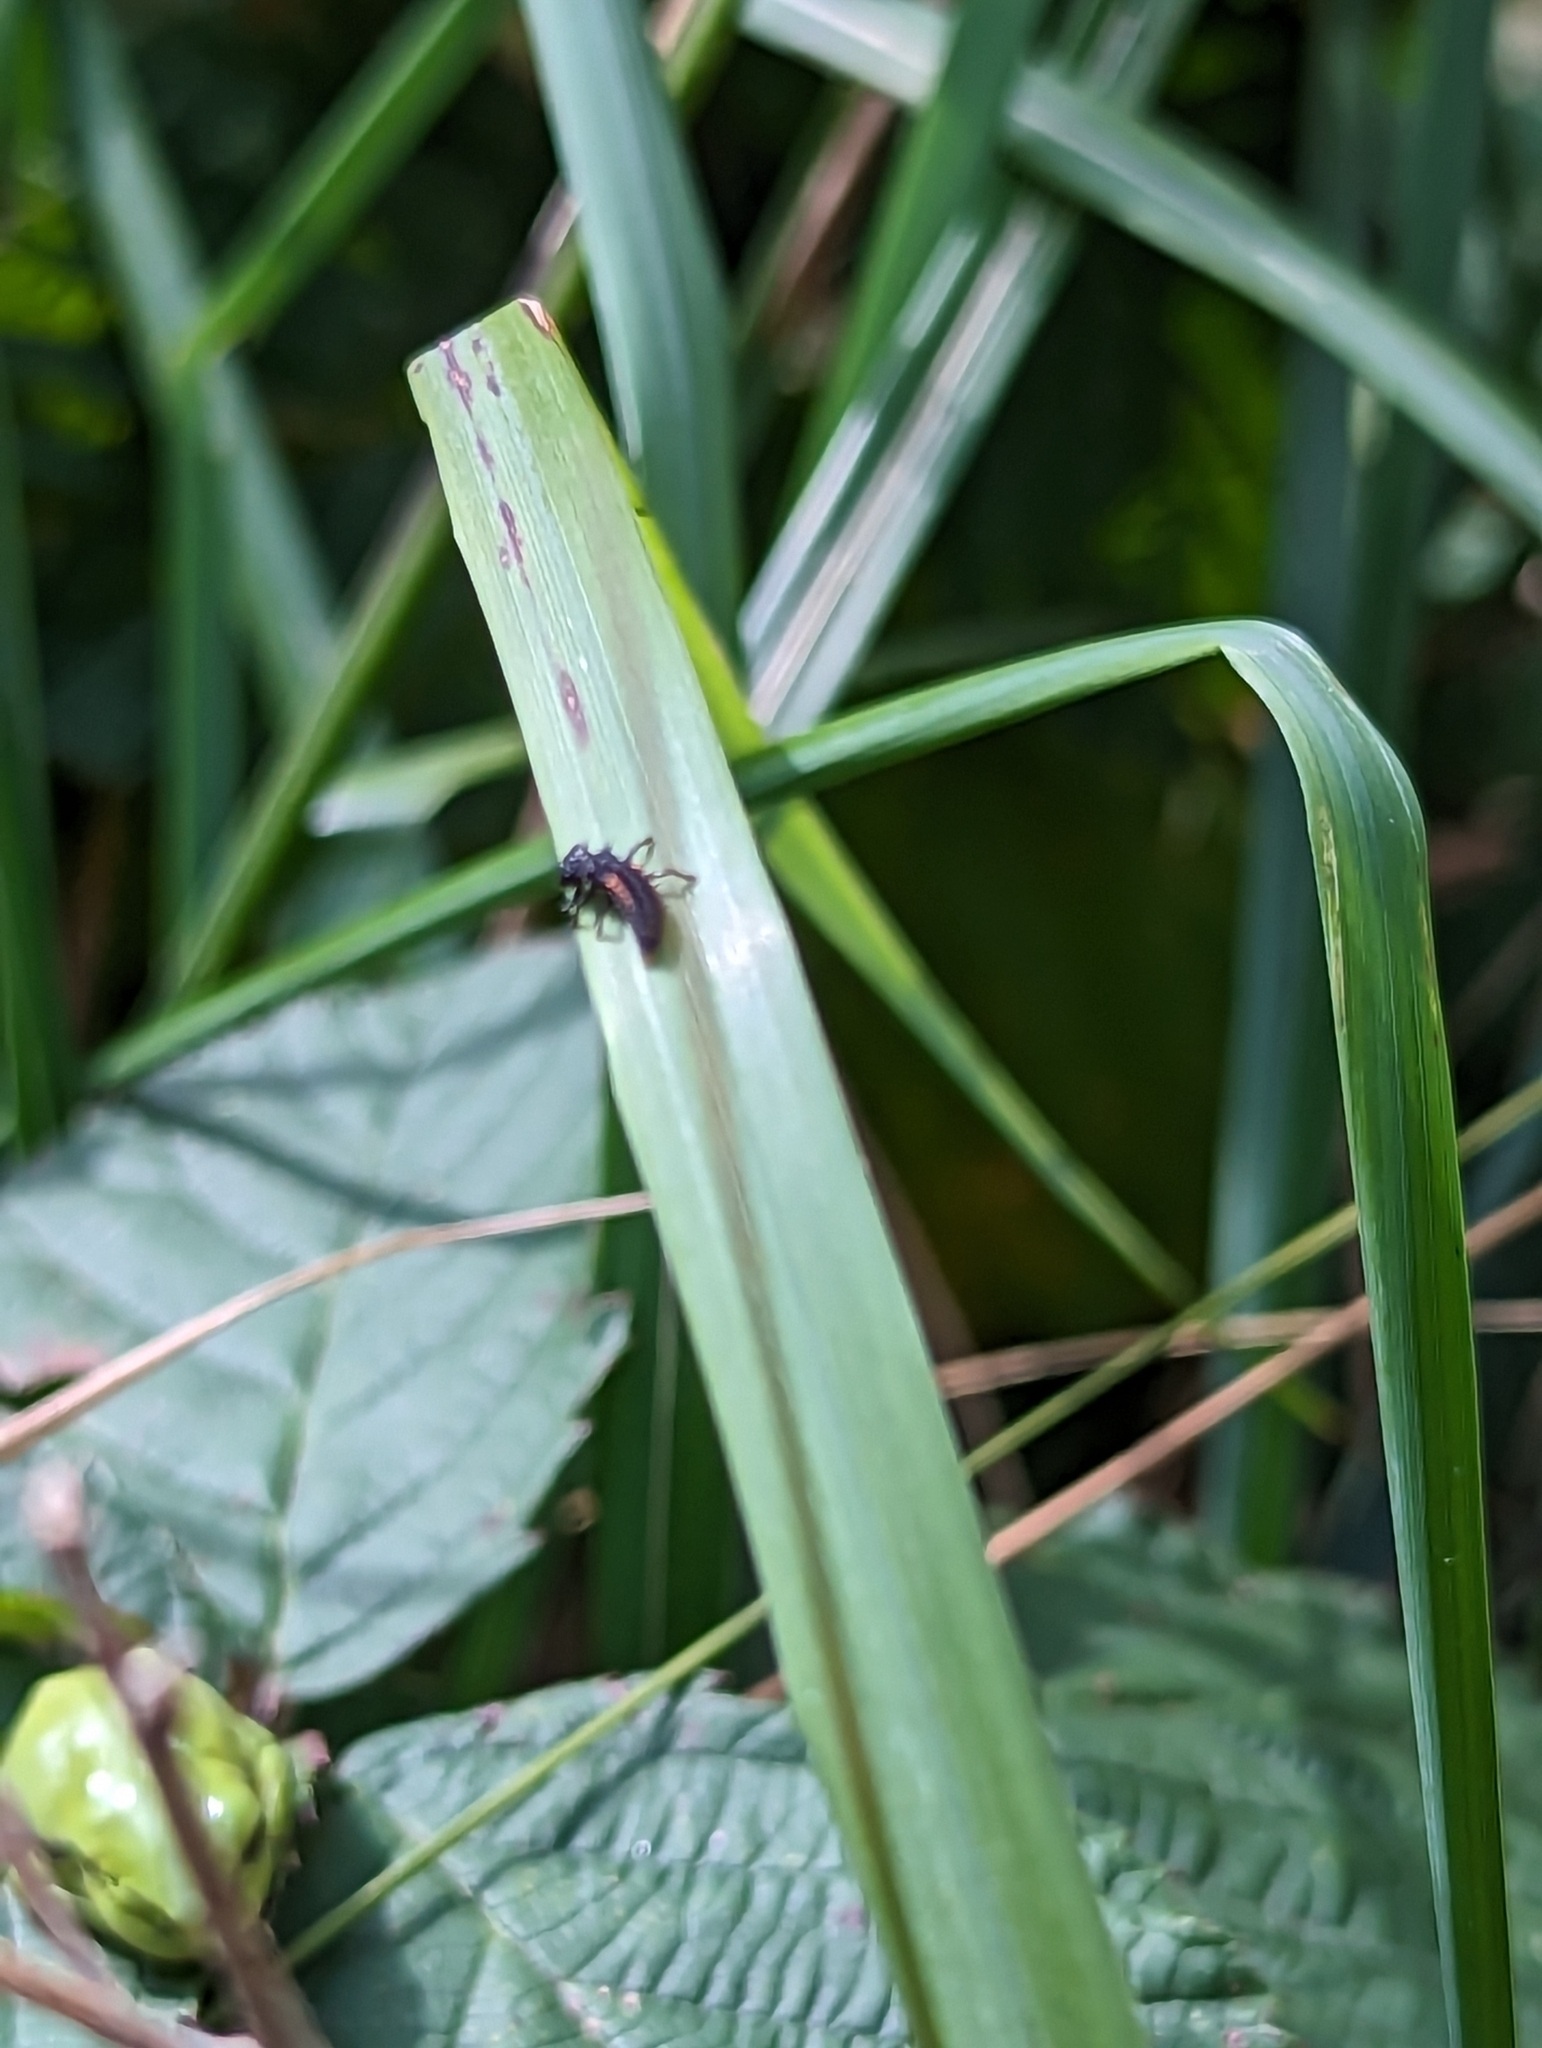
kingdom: Animalia
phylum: Arthropoda
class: Insecta
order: Coleoptera
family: Coccinellidae
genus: Harmonia
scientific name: Harmonia axyridis
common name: Harlequin ladybird
